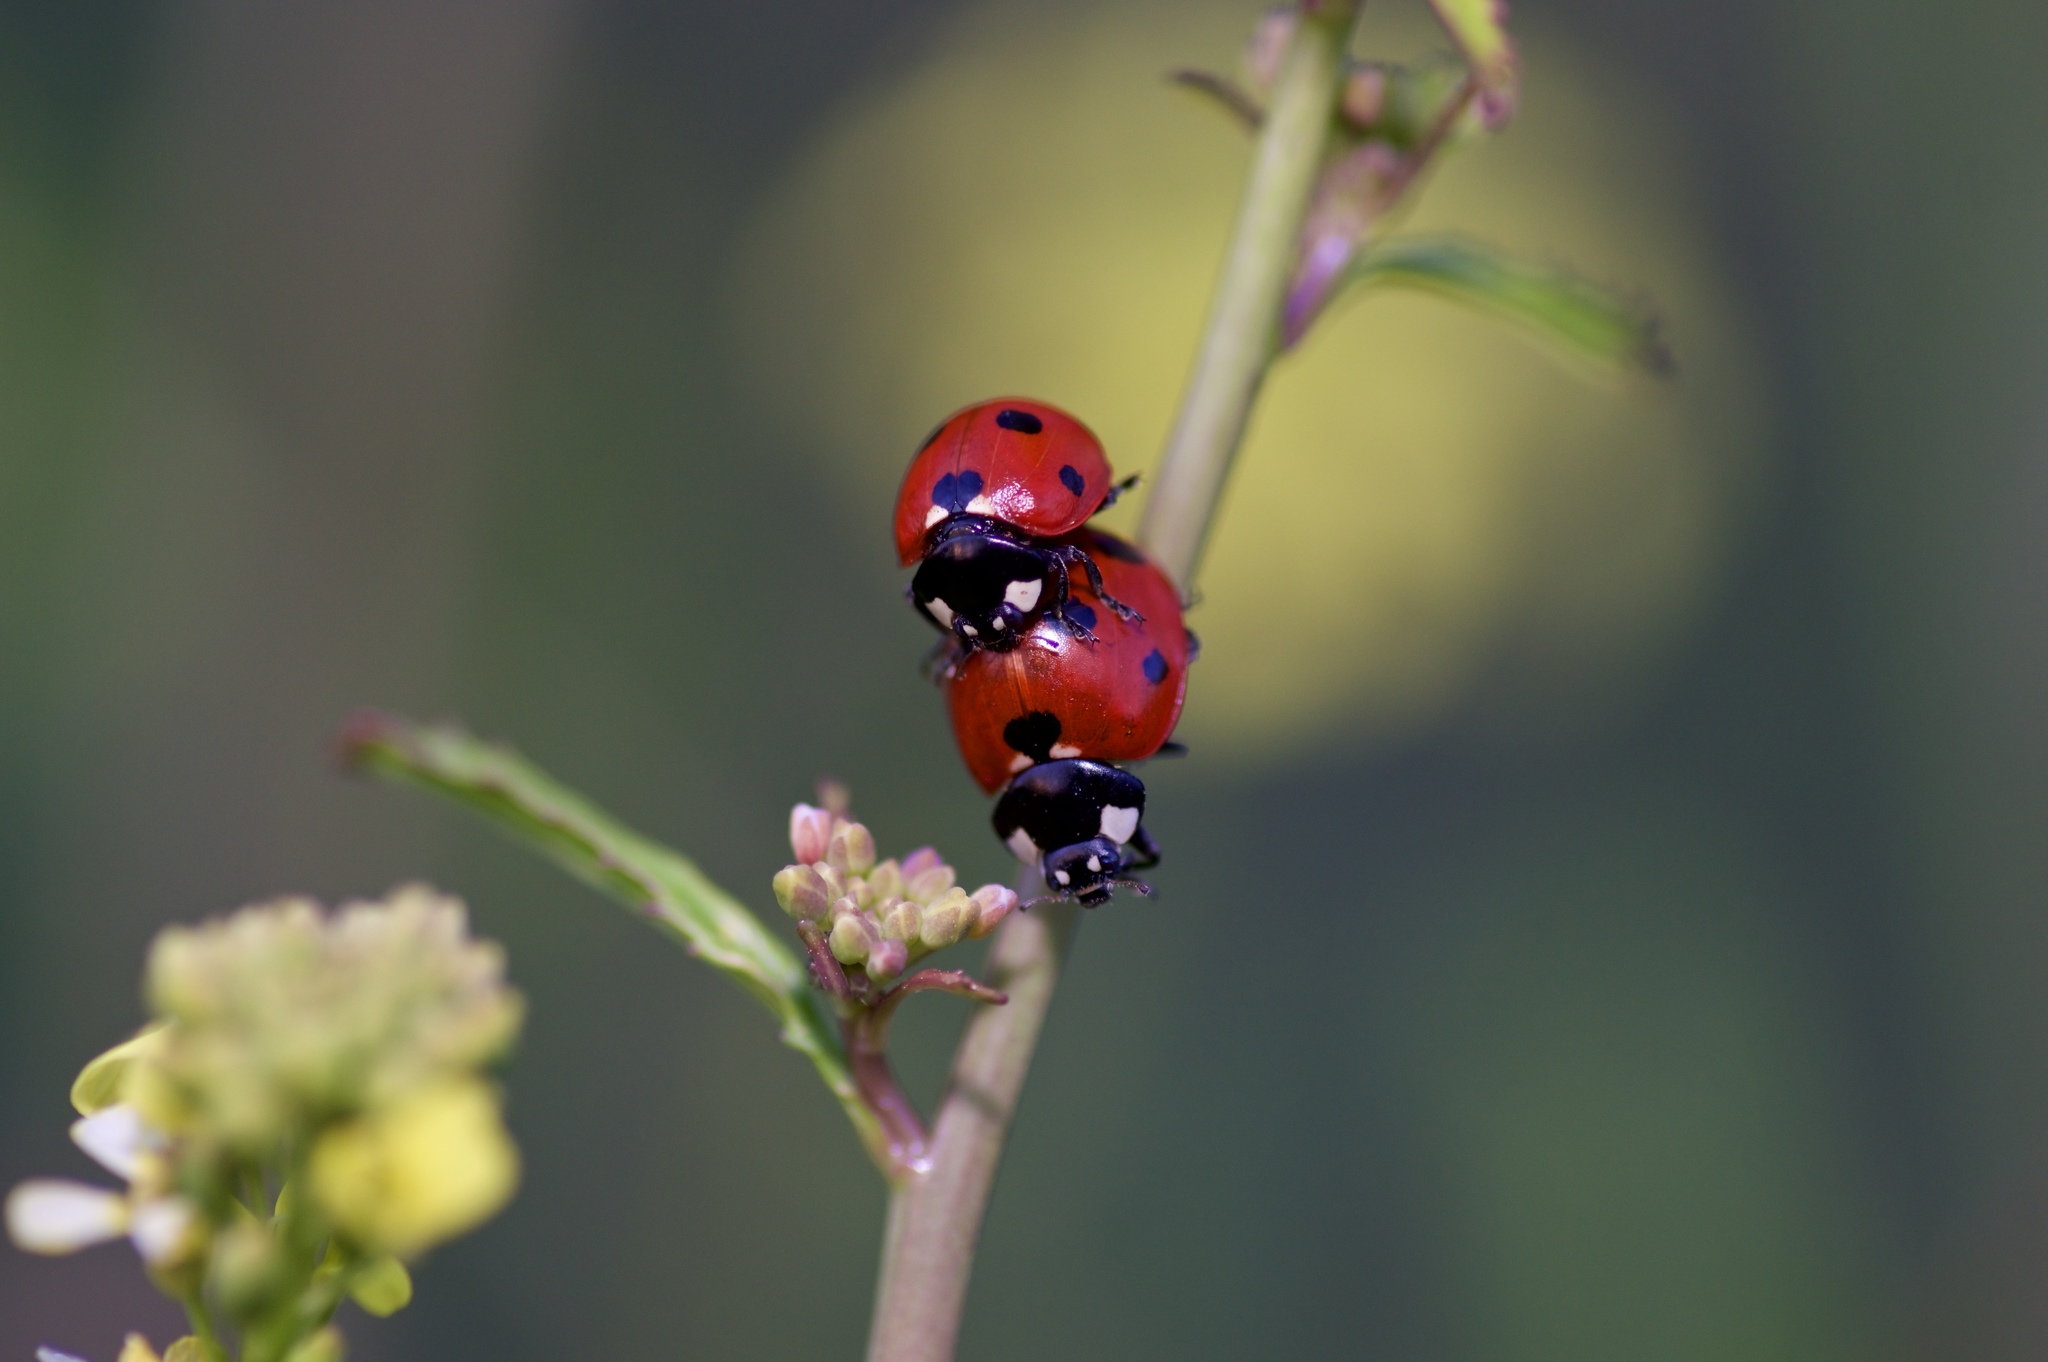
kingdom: Animalia
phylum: Arthropoda
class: Insecta
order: Coleoptera
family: Coccinellidae
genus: Coccinella
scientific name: Coccinella septempunctata
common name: Sevenspotted lady beetle
